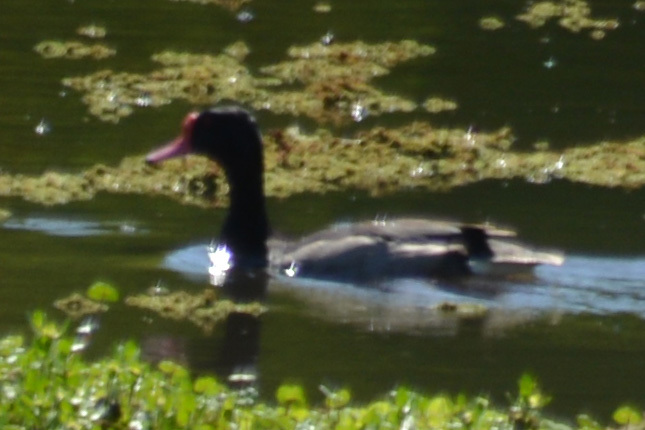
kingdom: Animalia
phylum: Chordata
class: Aves
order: Anseriformes
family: Anatidae
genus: Netta
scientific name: Netta peposaca
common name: Rosy-billed pochard
